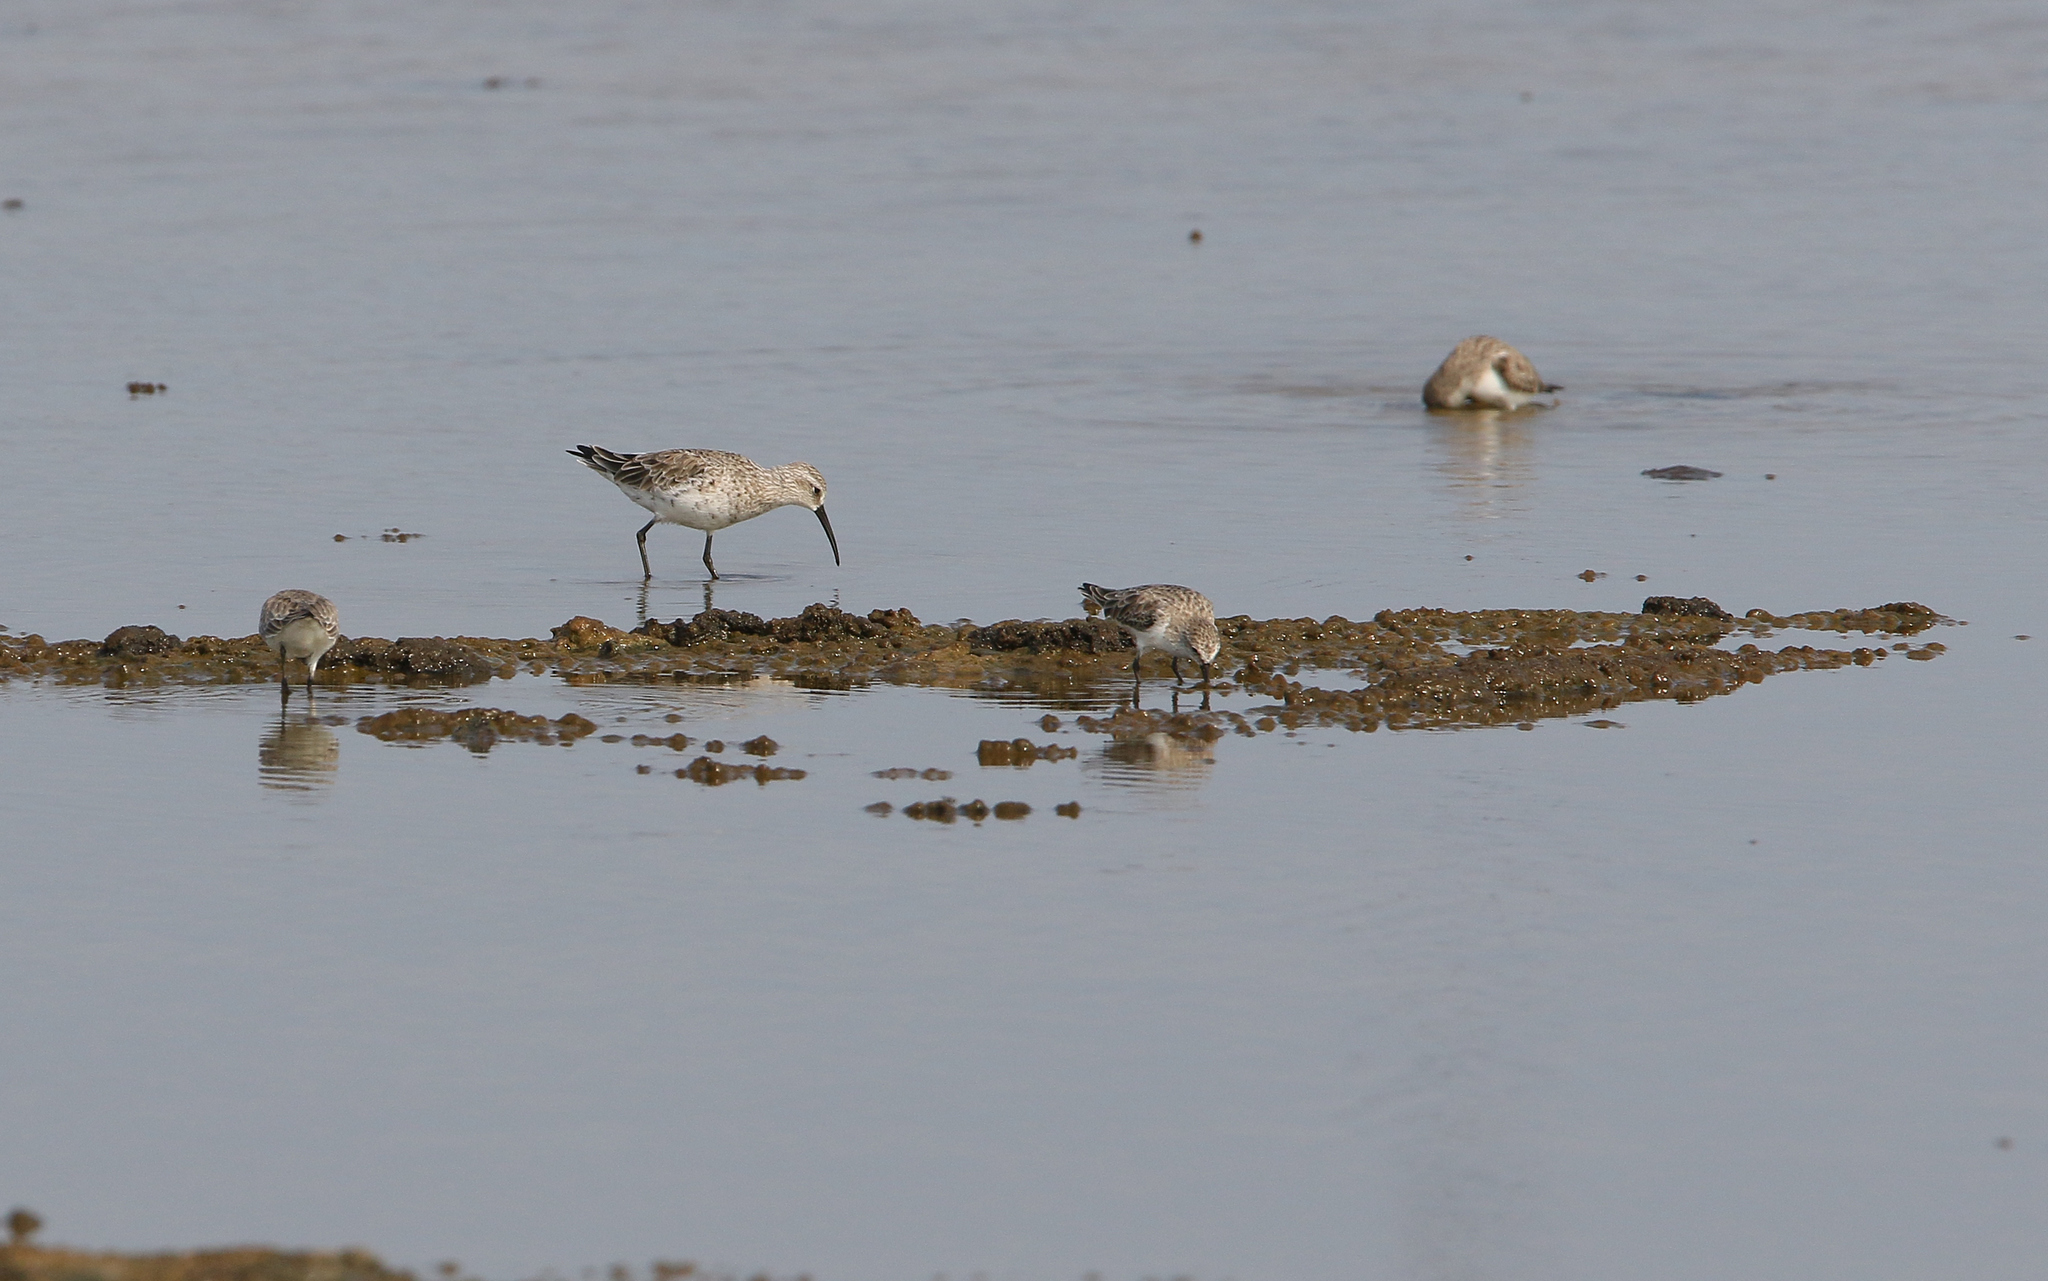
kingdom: Animalia
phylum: Chordata
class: Aves
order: Charadriiformes
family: Scolopacidae
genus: Calidris
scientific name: Calidris ferruginea
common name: Curlew sandpiper
